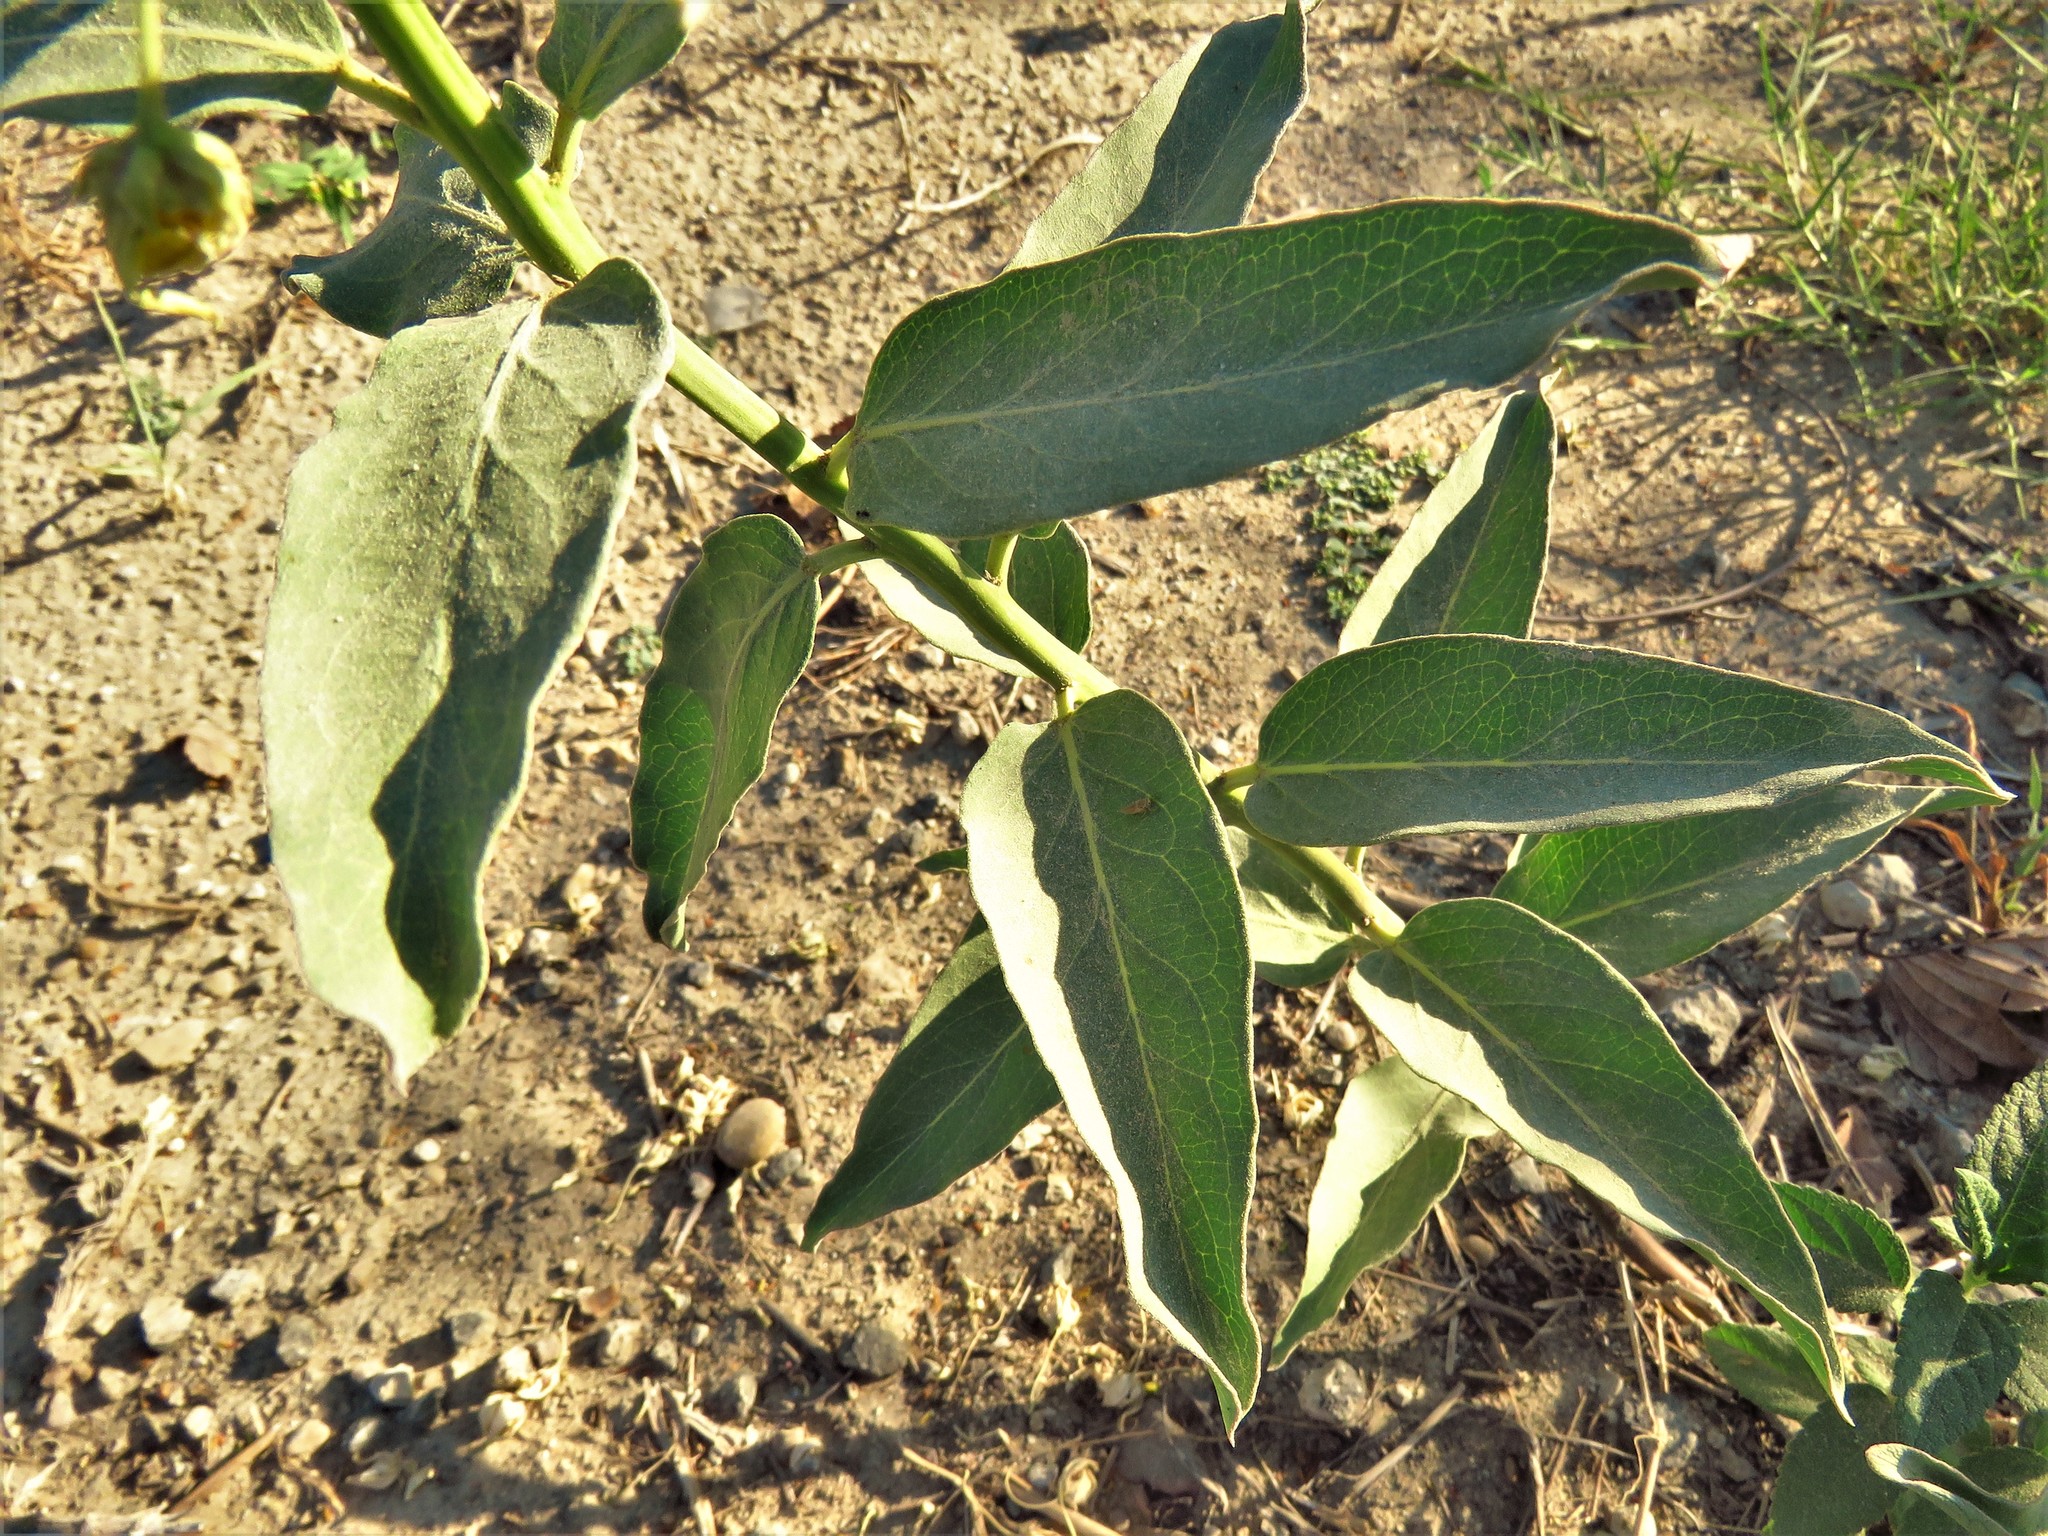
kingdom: Plantae
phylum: Tracheophyta
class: Magnoliopsida
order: Gentianales
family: Apocynaceae
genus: Asclepias
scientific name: Asclepias viridis
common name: Antelope-horns
